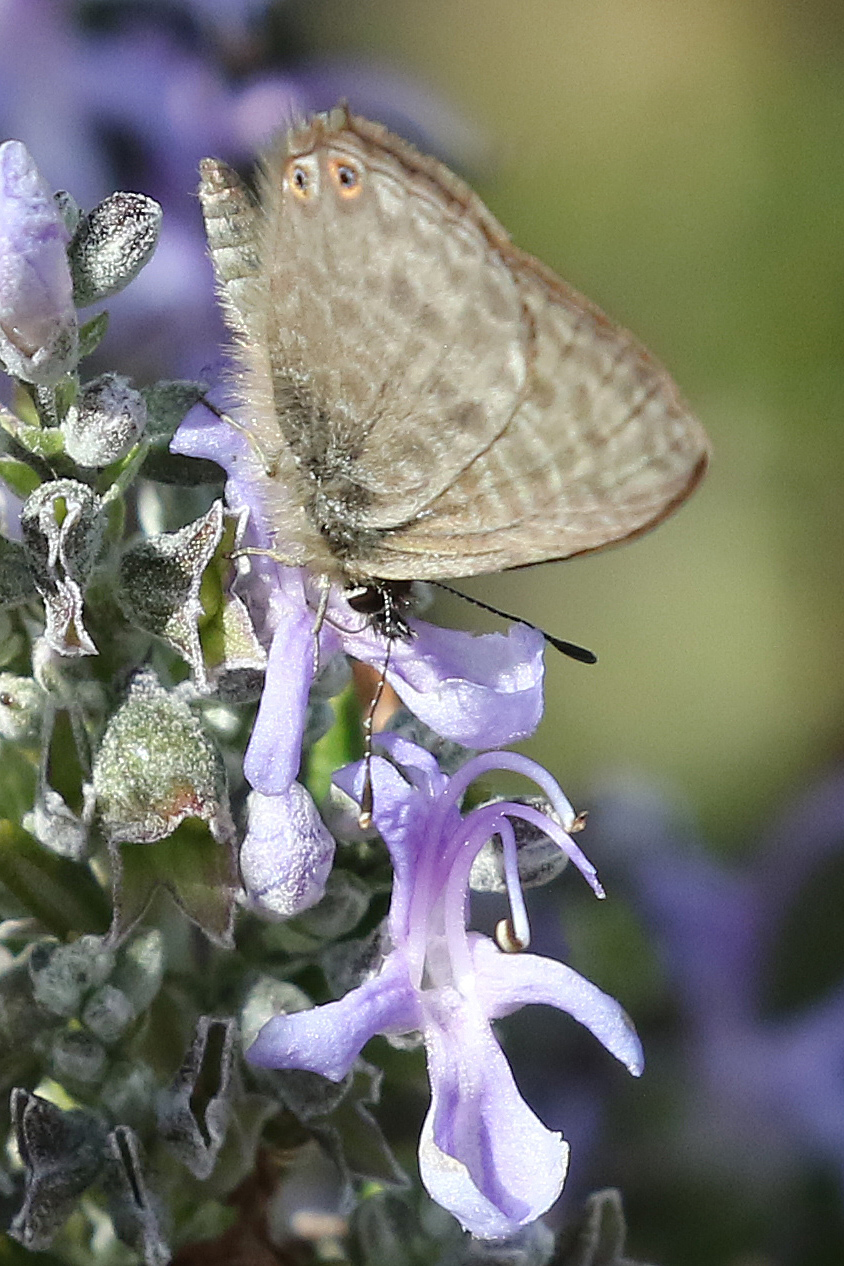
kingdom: Animalia
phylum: Arthropoda
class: Insecta
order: Lepidoptera
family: Lycaenidae
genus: Leptotes
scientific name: Leptotes pirithous
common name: Lang's short-tailed blue
